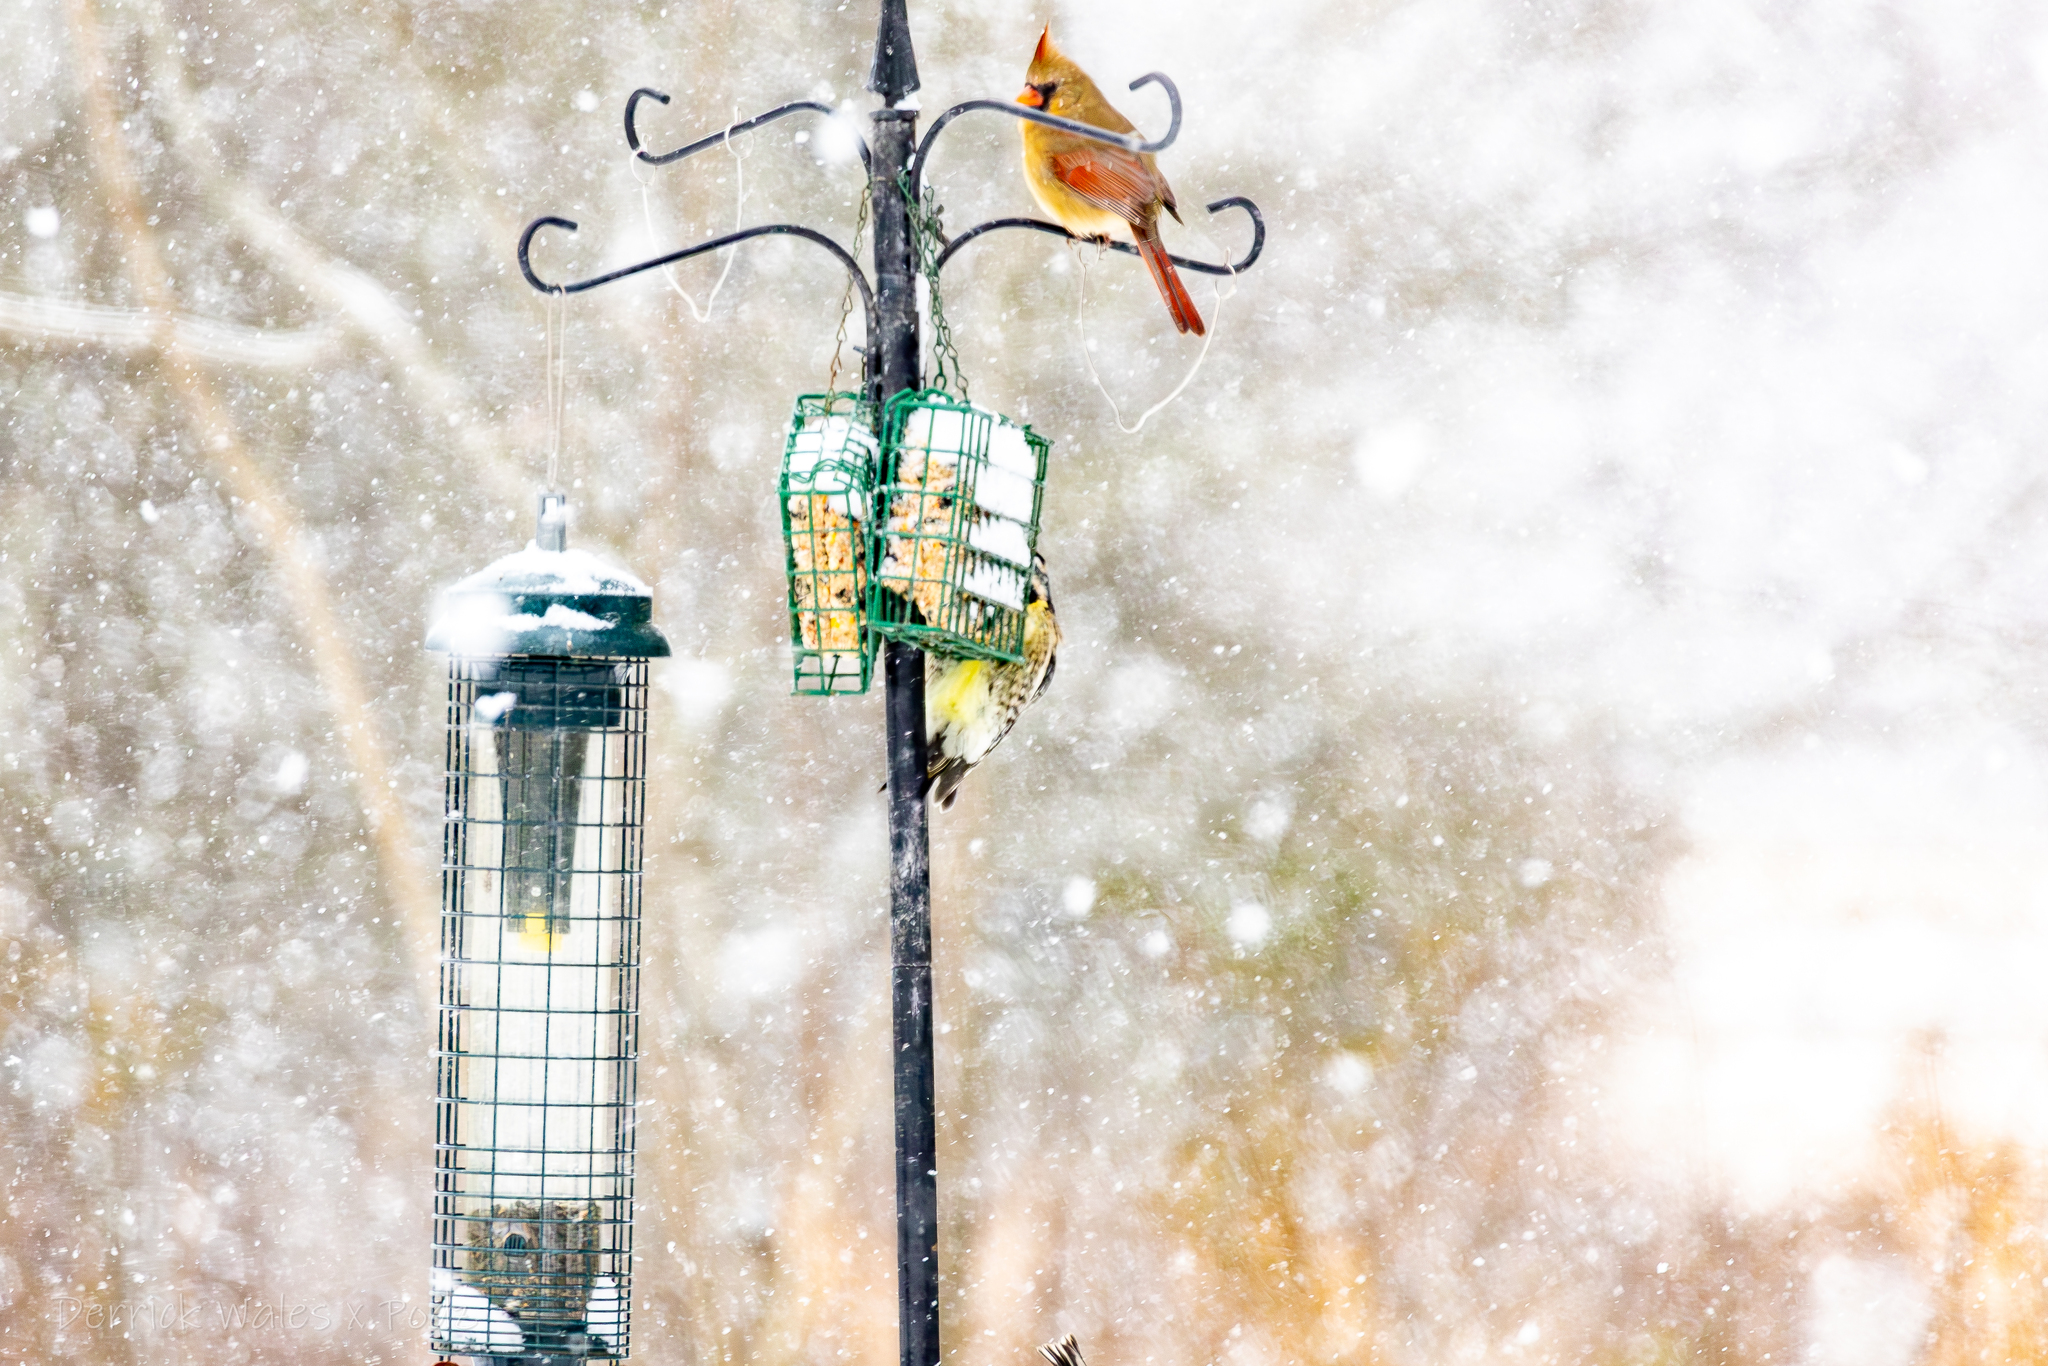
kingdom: Animalia
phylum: Chordata
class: Aves
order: Piciformes
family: Picidae
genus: Sphyrapicus
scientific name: Sphyrapicus varius
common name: Yellow-bellied sapsucker
